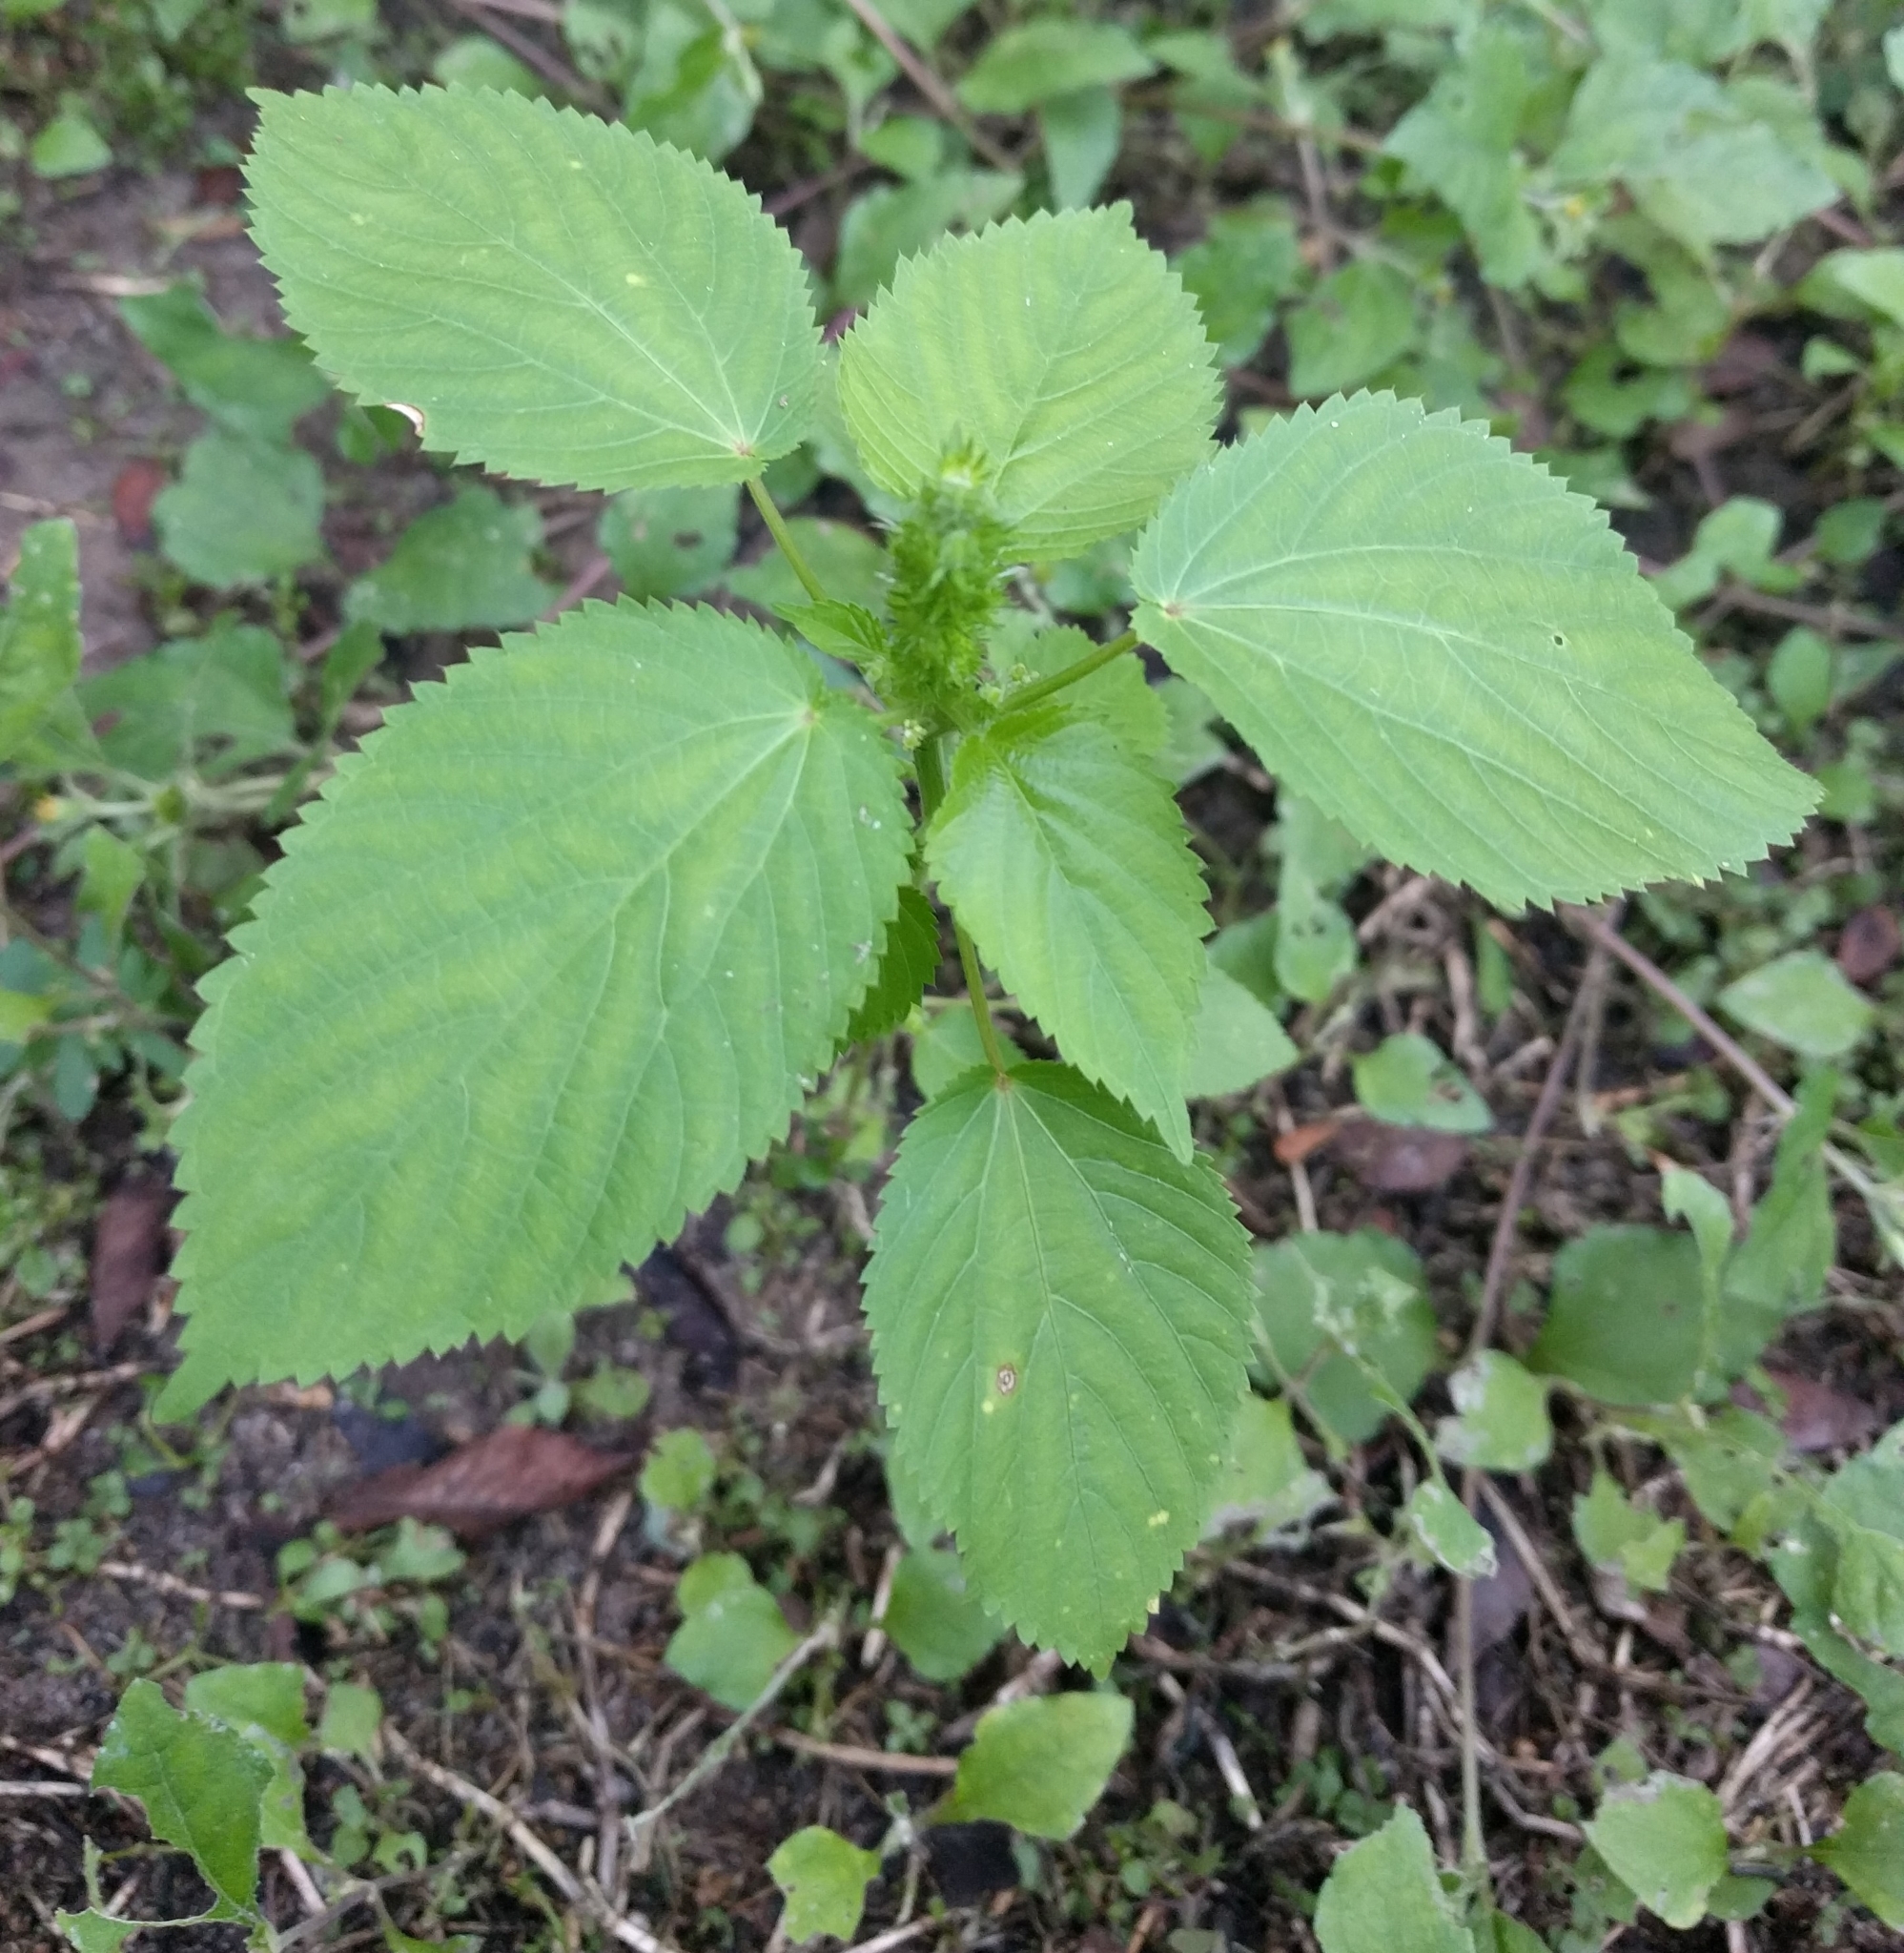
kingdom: Plantae
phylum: Tracheophyta
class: Magnoliopsida
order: Malpighiales
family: Euphorbiaceae
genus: Acalypha
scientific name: Acalypha ostryifolia
